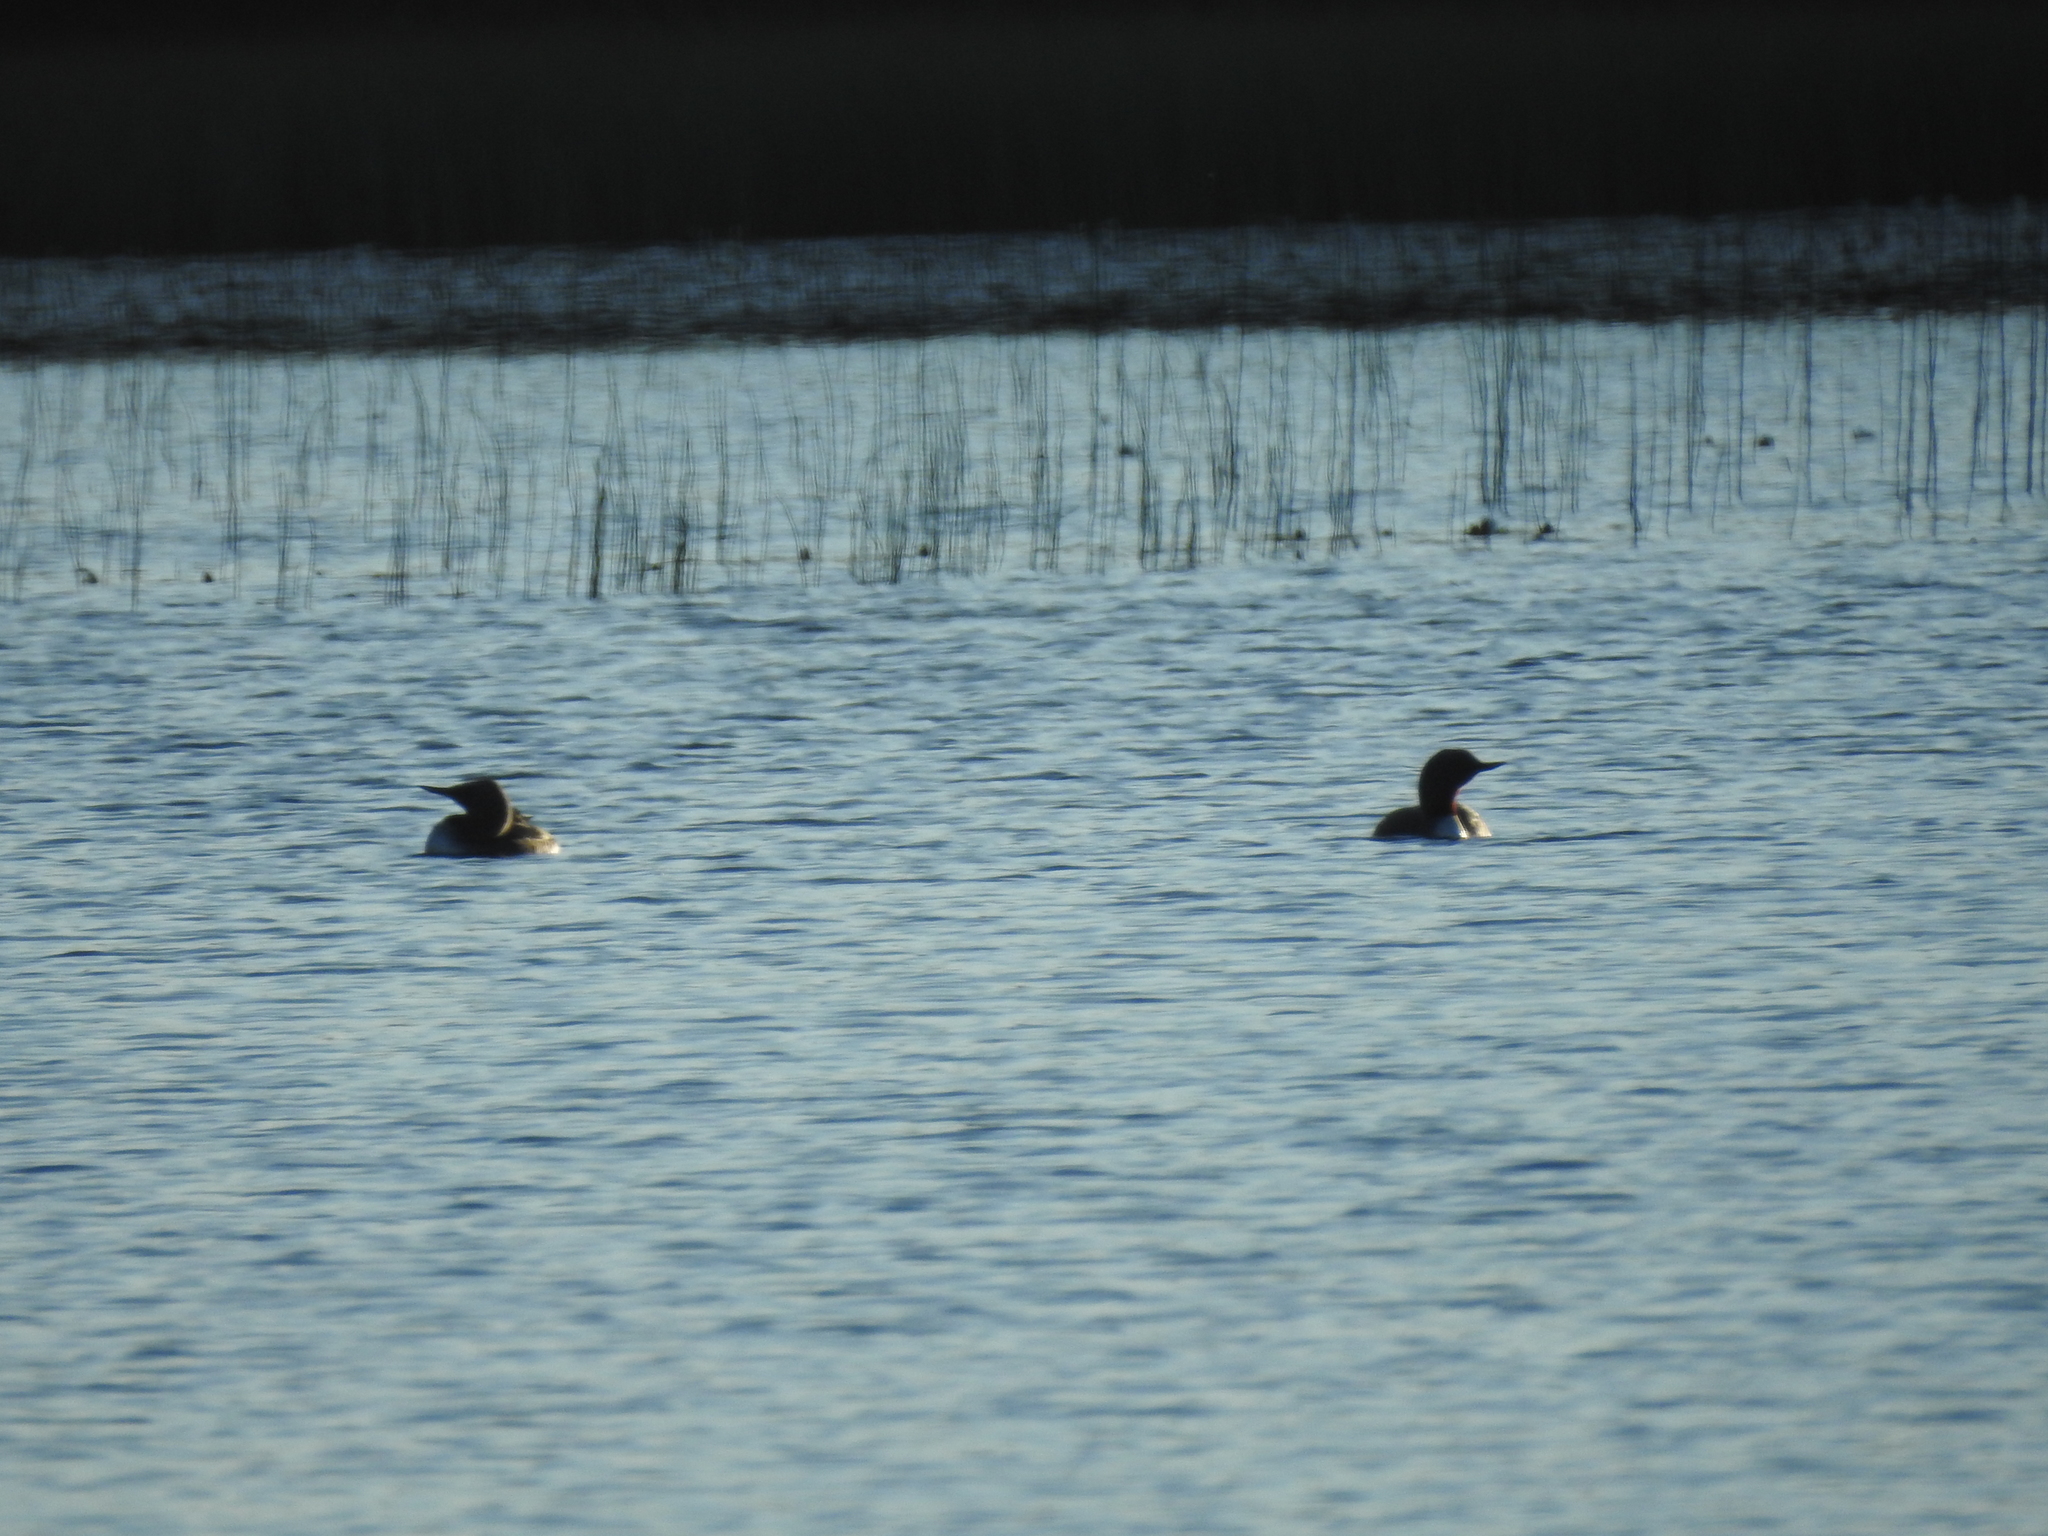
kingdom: Animalia
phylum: Chordata
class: Aves
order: Gaviiformes
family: Gaviidae
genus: Gavia
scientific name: Gavia stellata
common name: Red-throated loon
